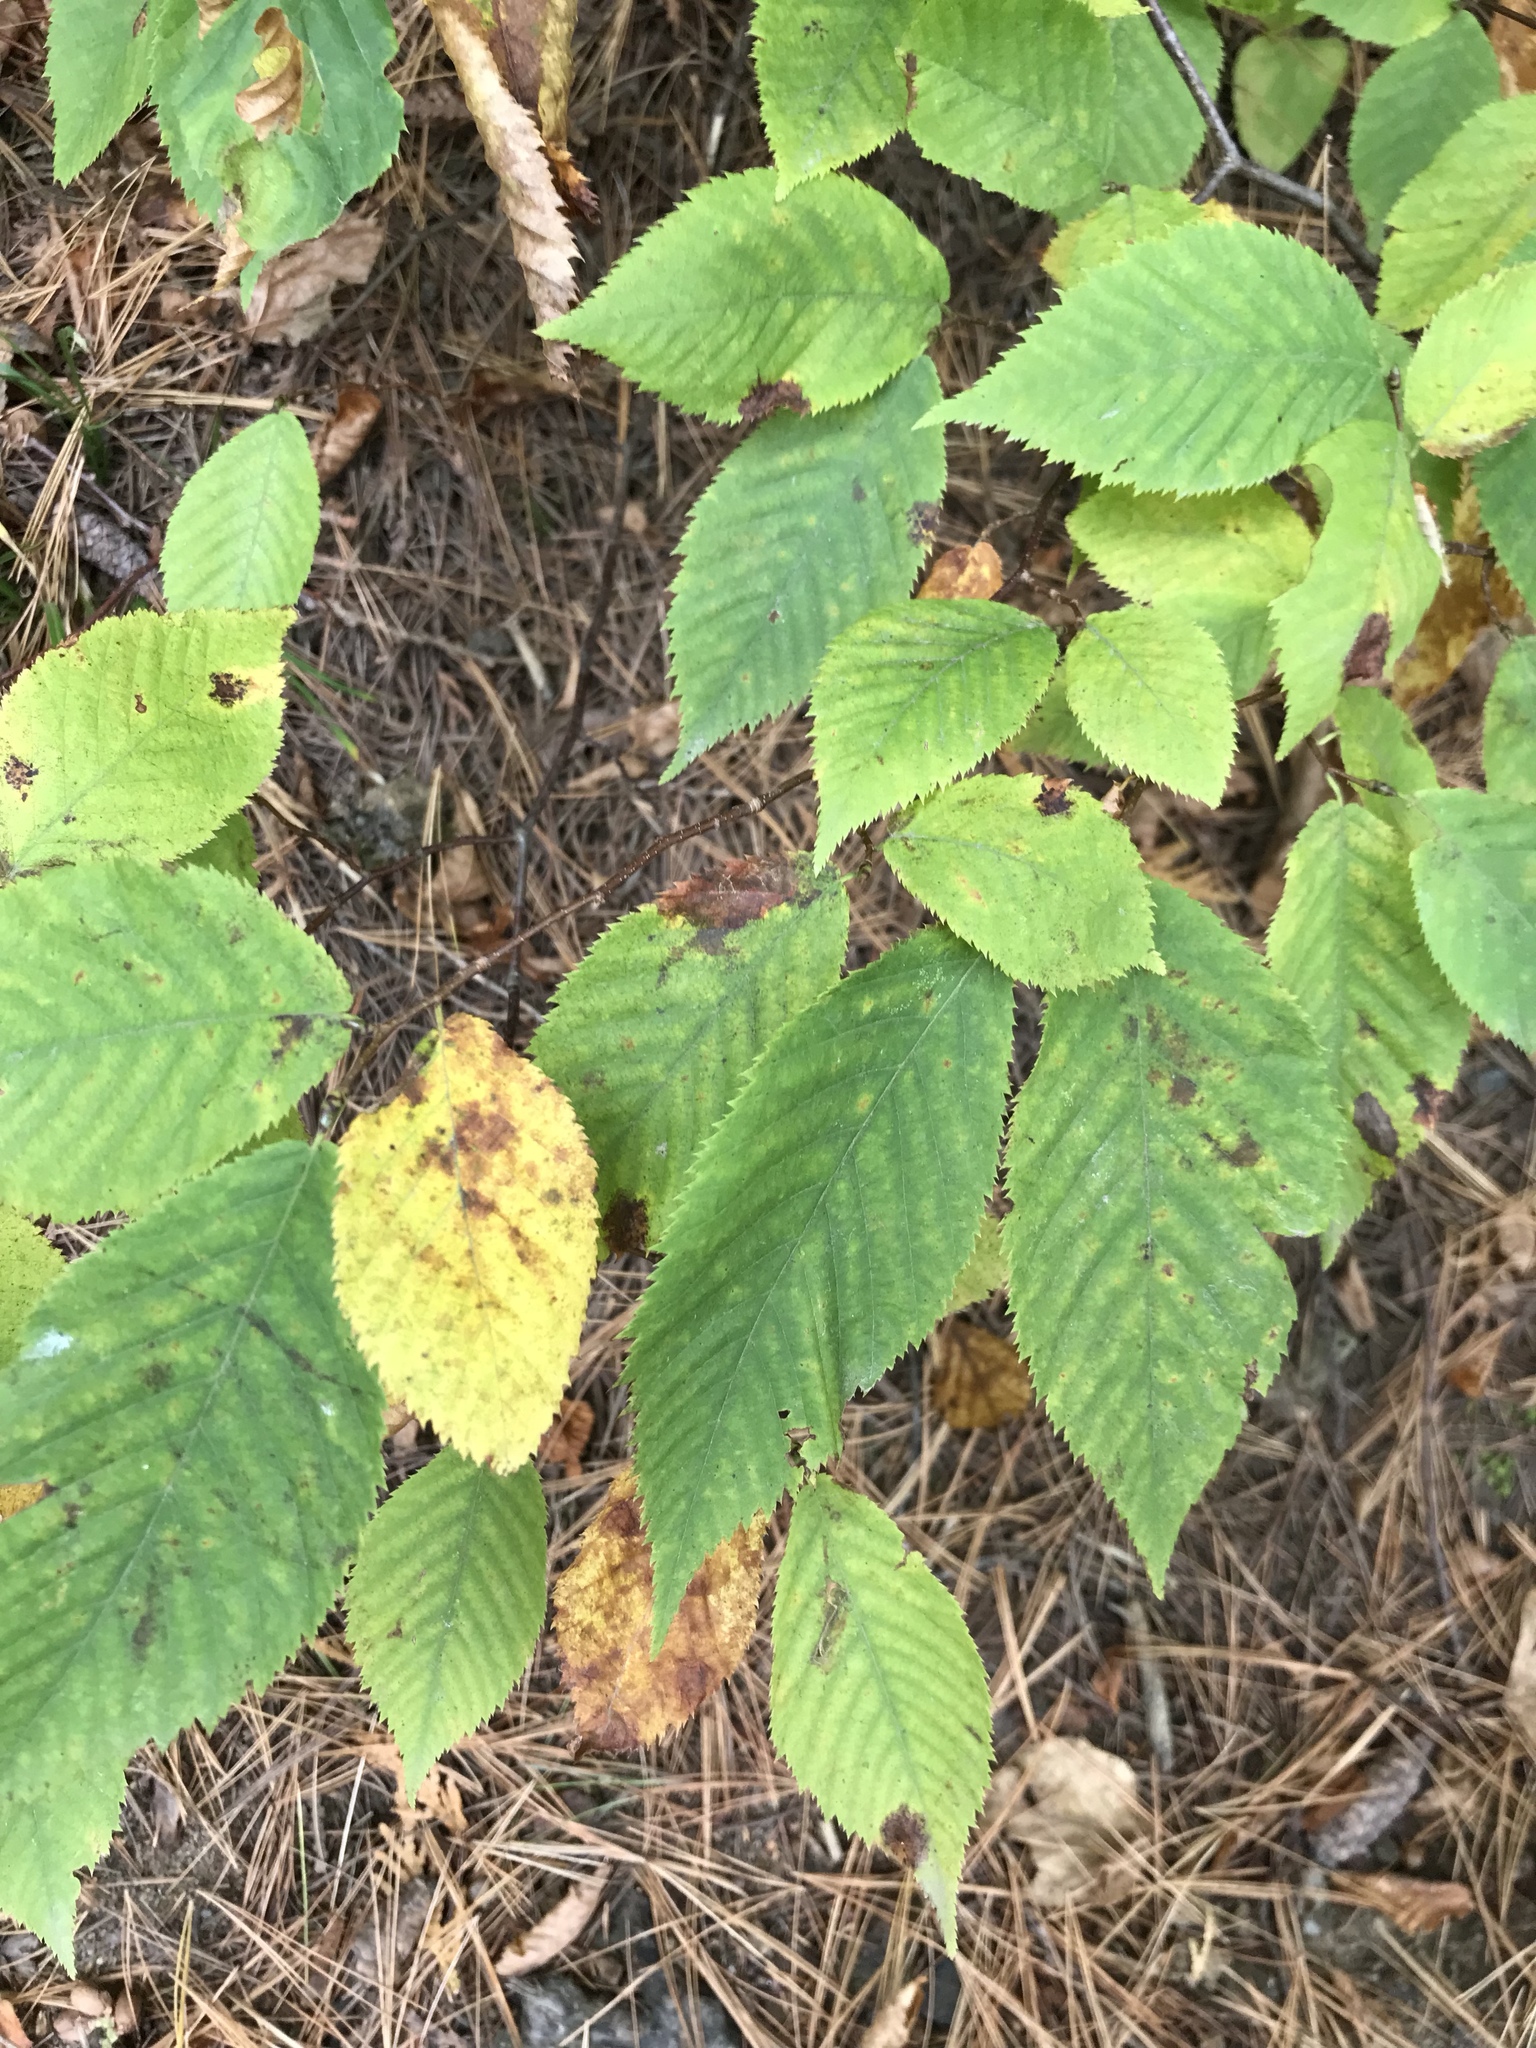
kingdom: Plantae
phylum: Tracheophyta
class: Magnoliopsida
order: Fagales
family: Betulaceae
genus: Ostrya
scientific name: Ostrya virginiana
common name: Ironwood
